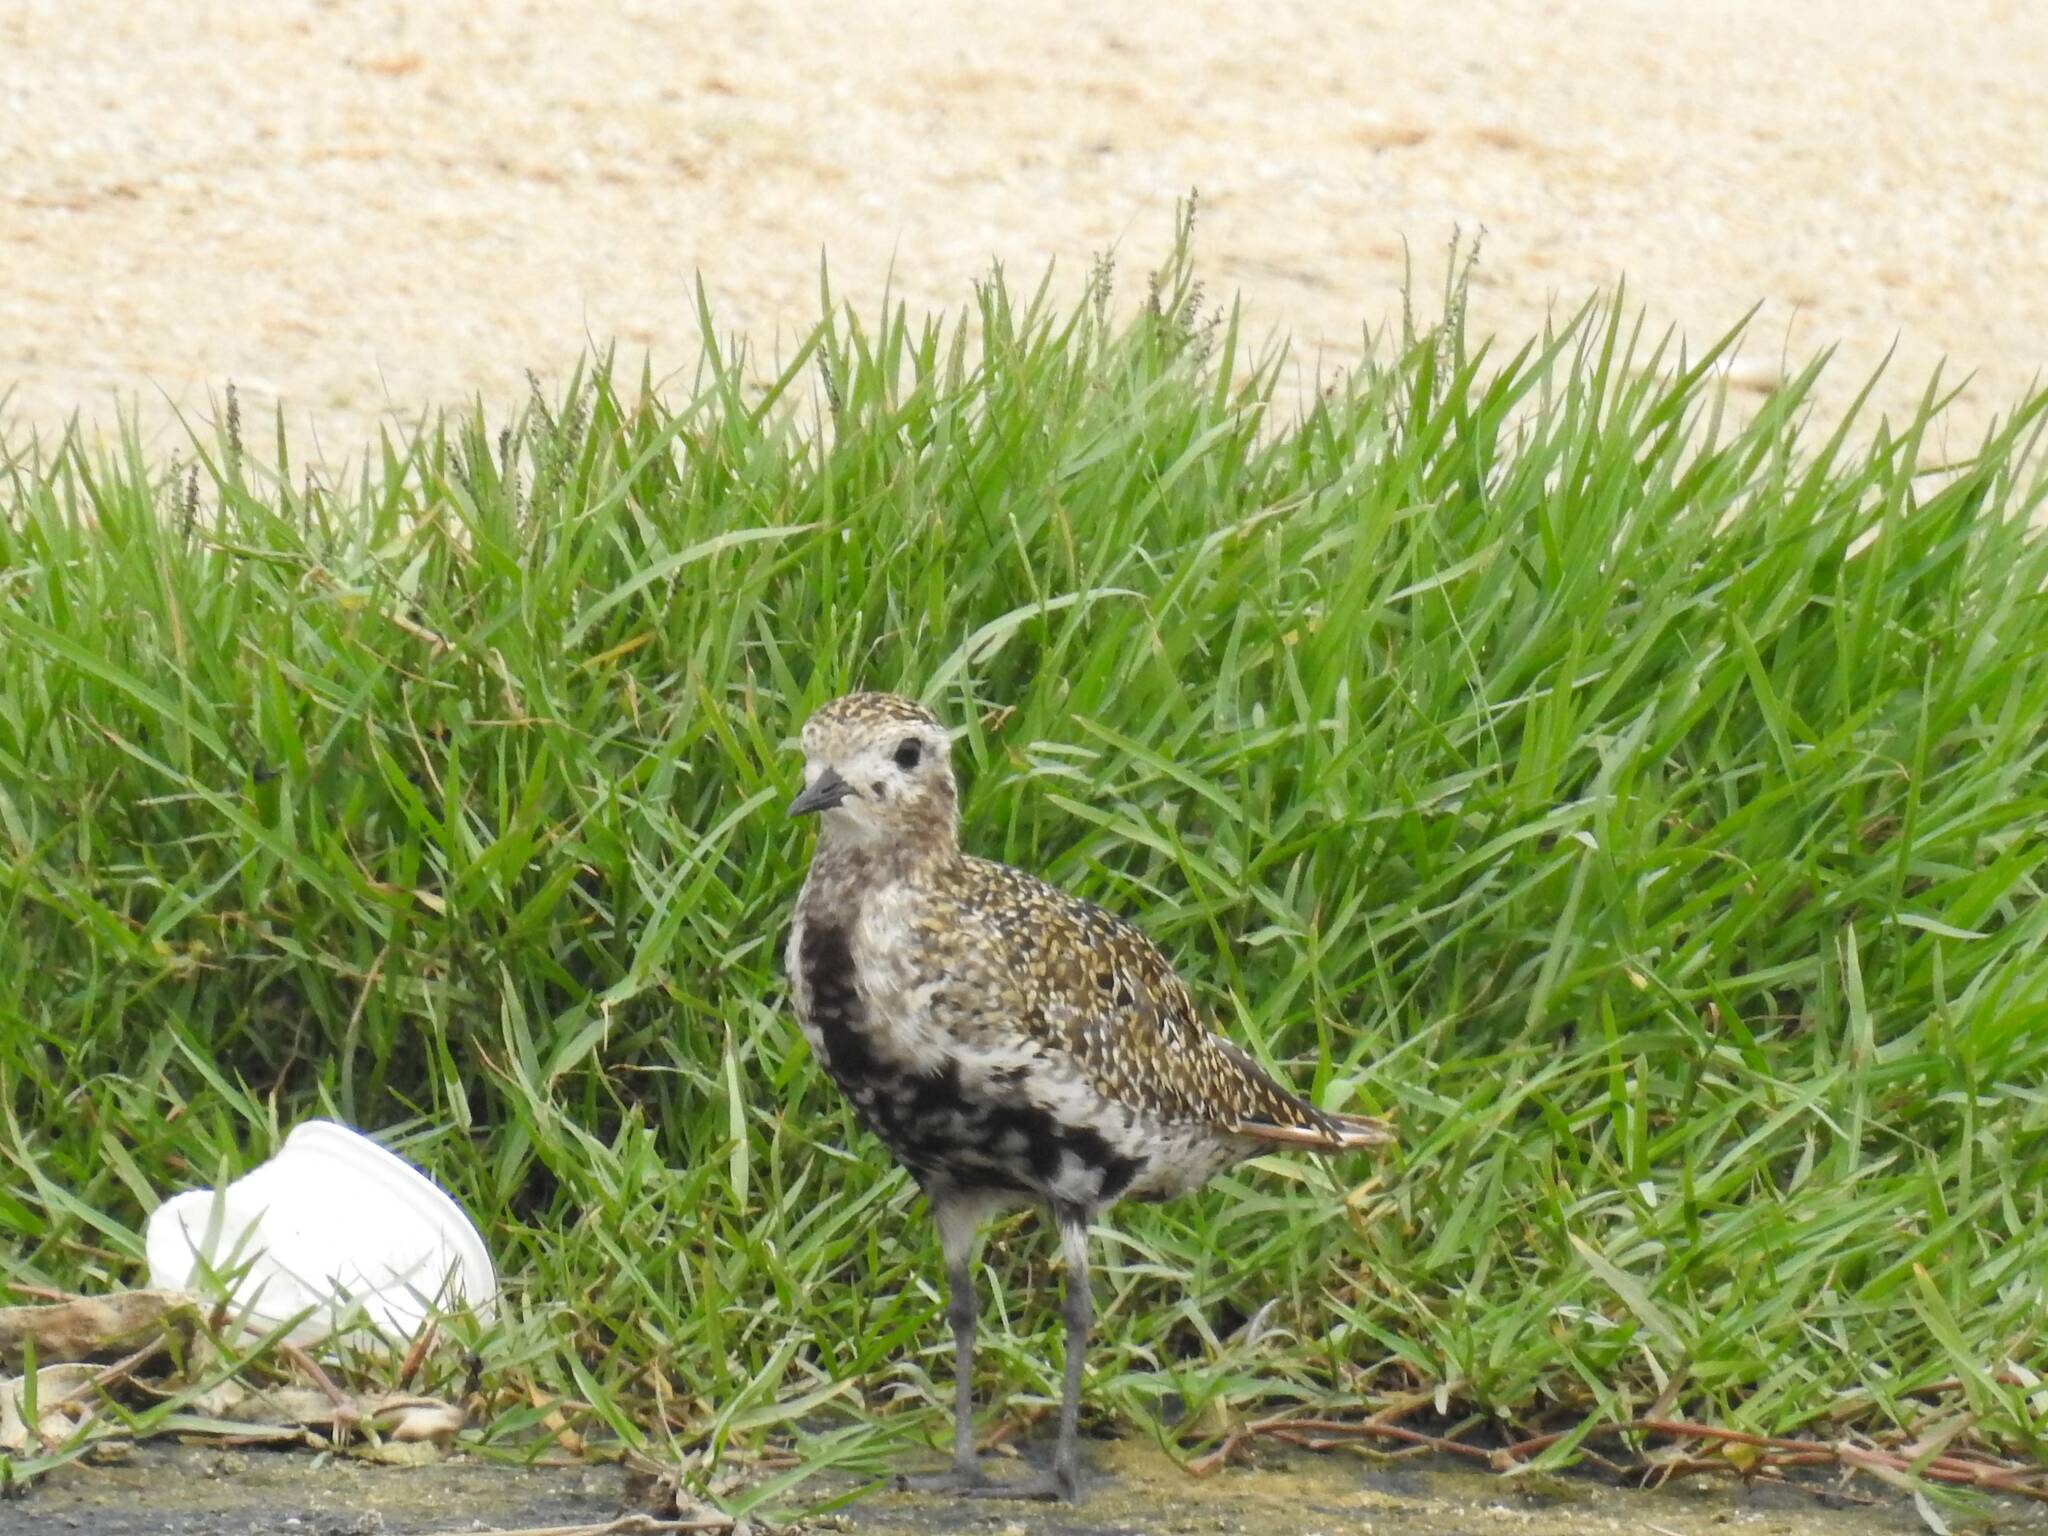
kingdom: Animalia
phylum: Chordata
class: Aves
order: Charadriiformes
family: Charadriidae
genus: Pluvialis
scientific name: Pluvialis apricaria
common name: European golden plover
